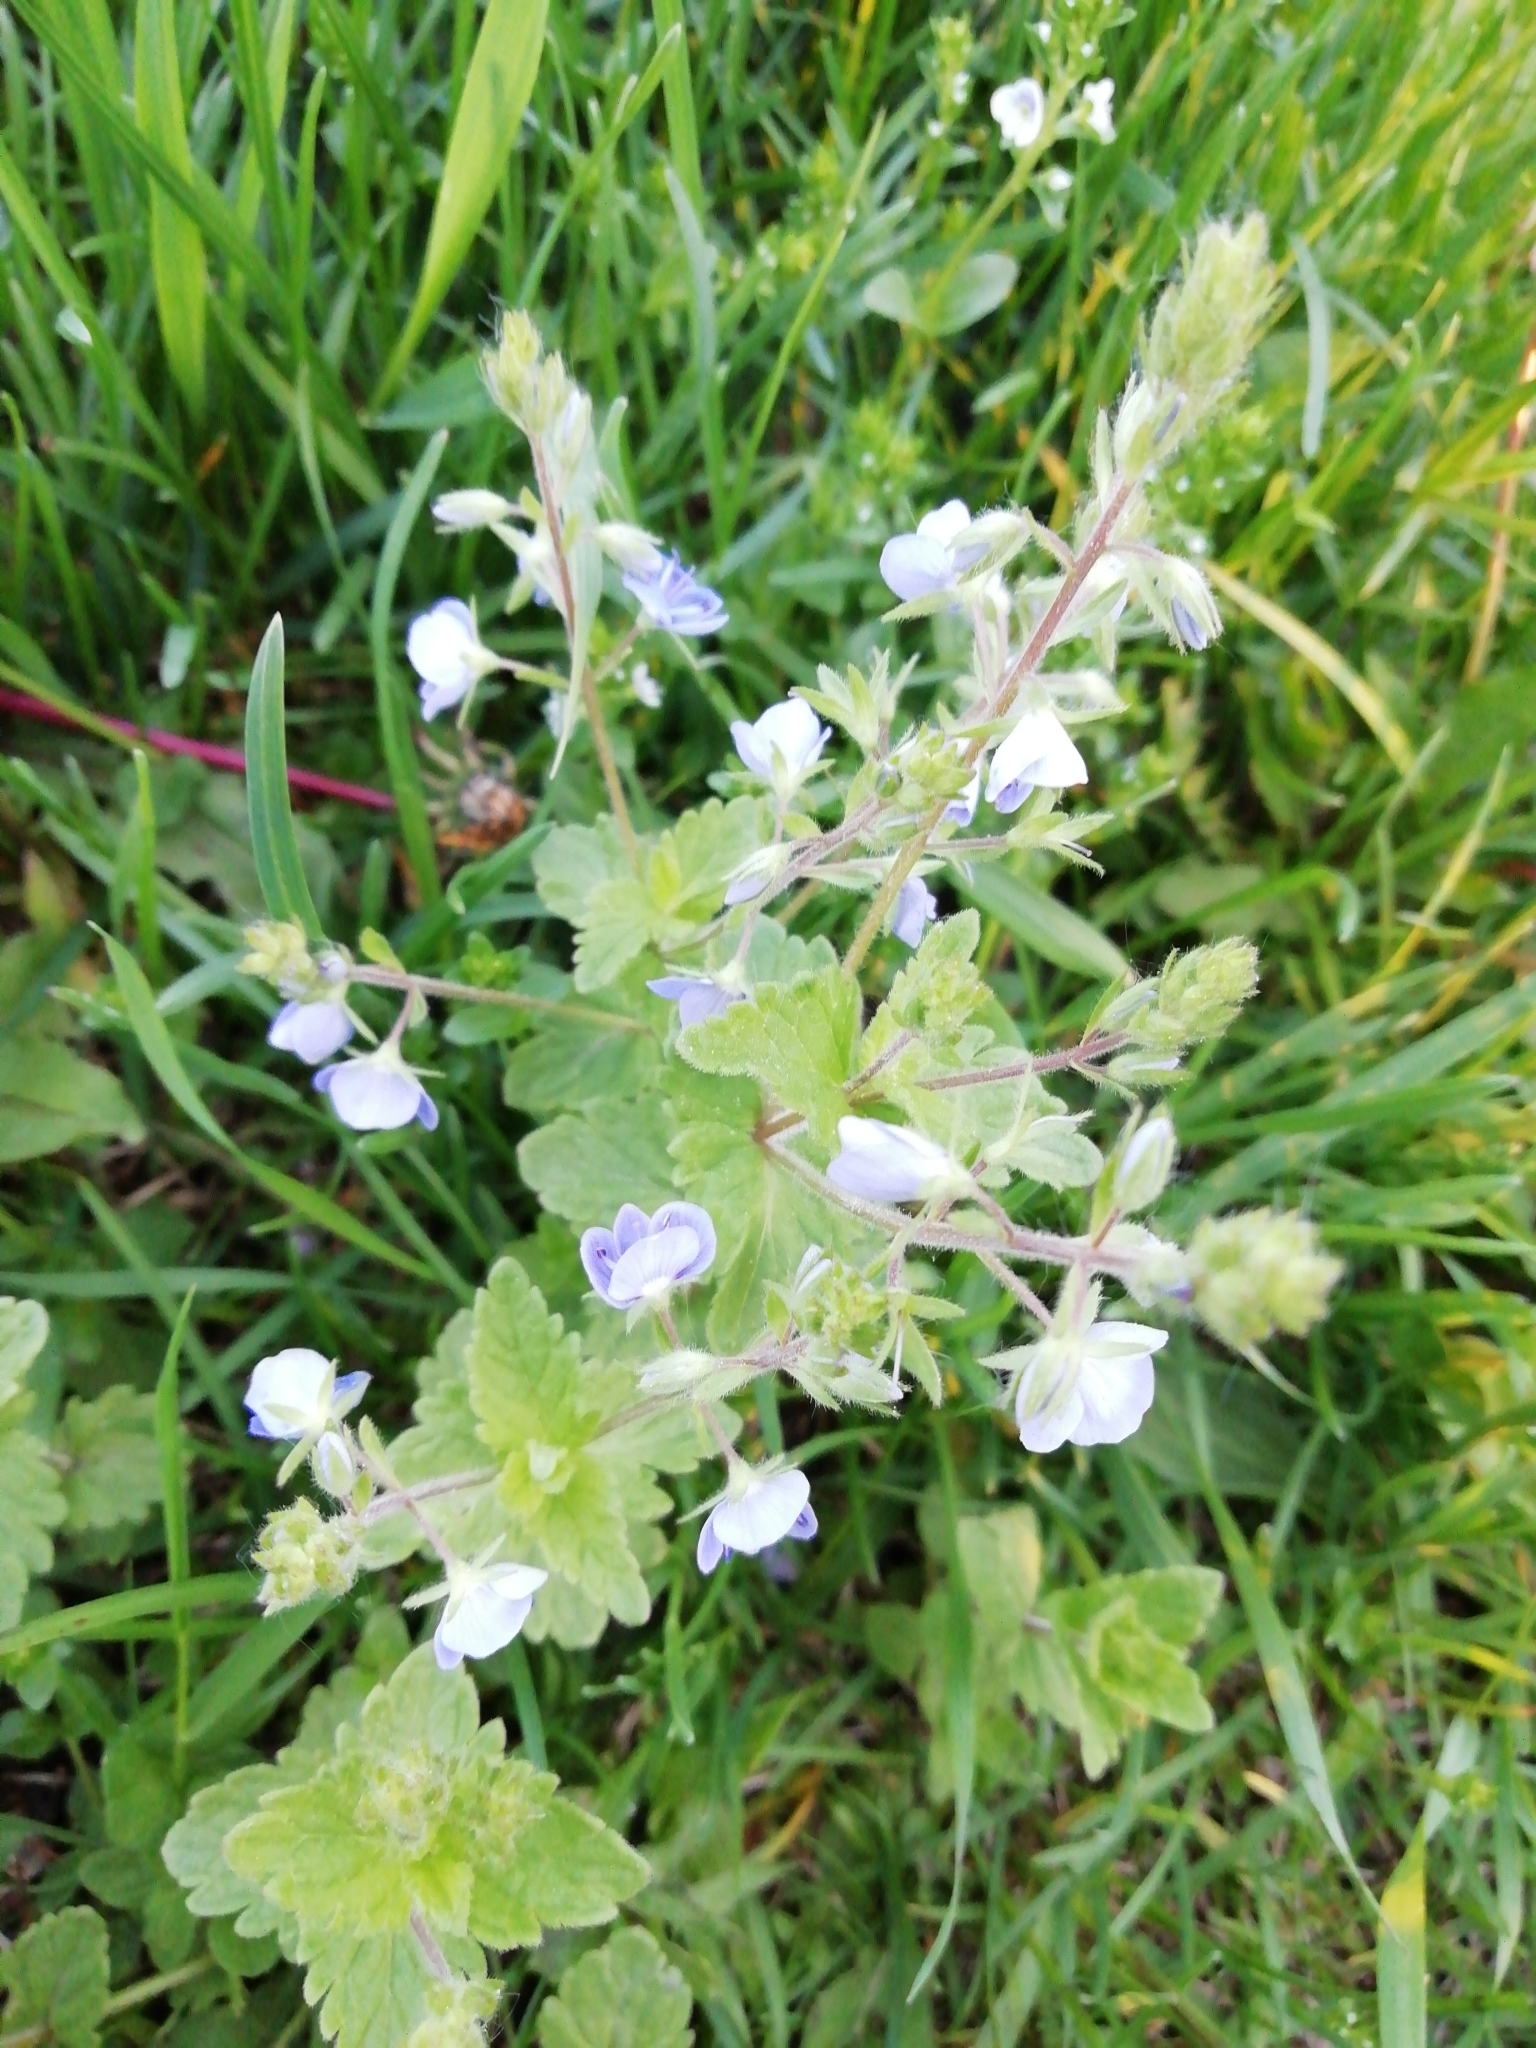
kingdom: Plantae
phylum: Tracheophyta
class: Magnoliopsida
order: Lamiales
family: Plantaginaceae
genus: Veronica
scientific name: Veronica chamaedrys
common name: Germander speedwell
